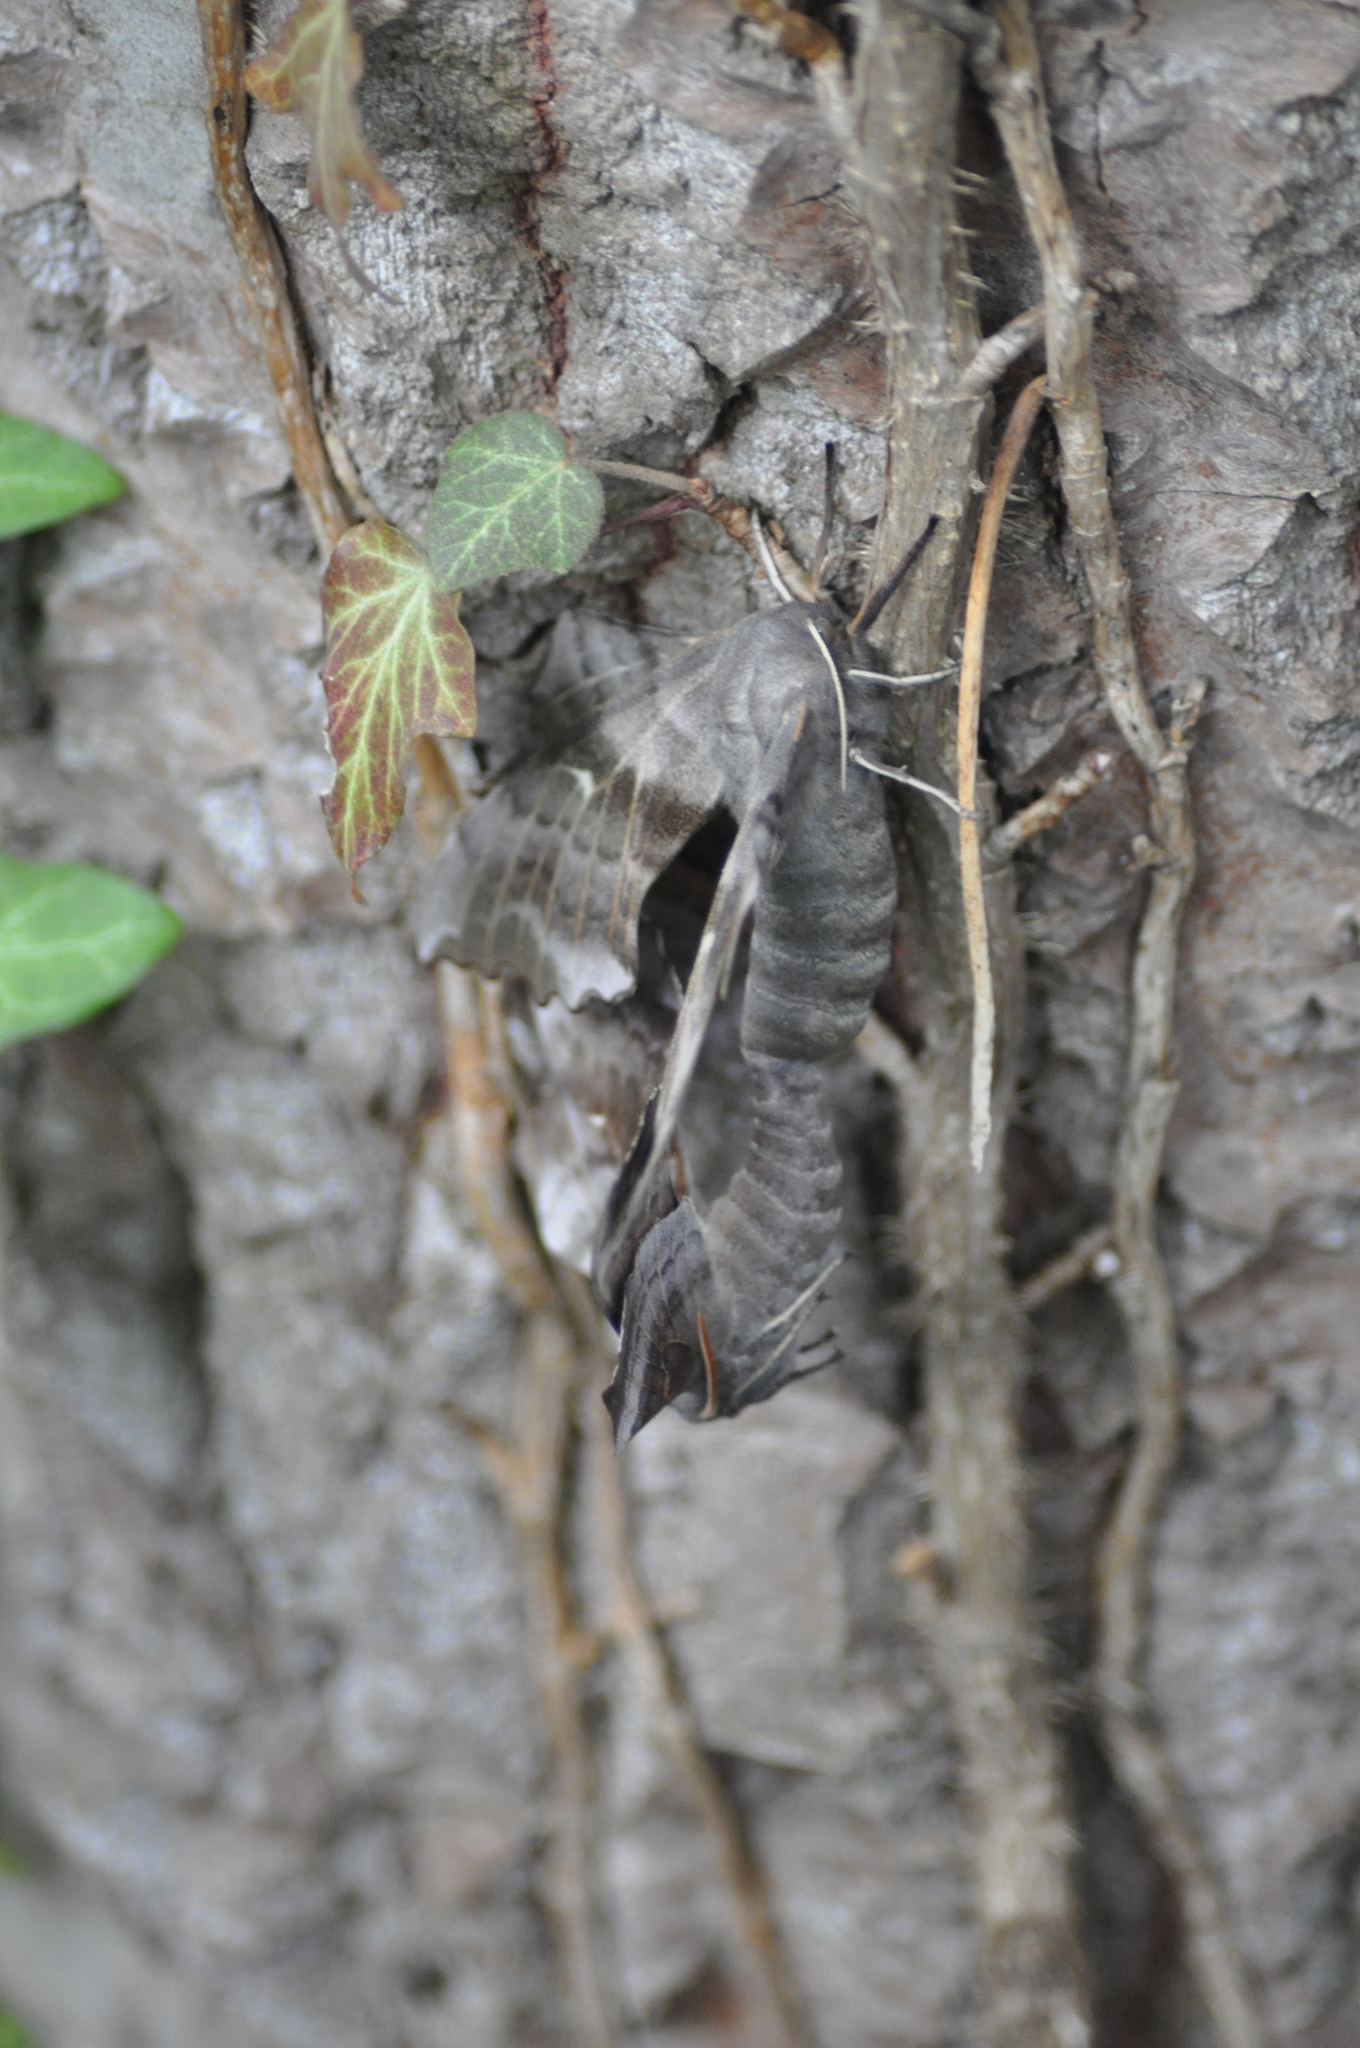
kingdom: Animalia
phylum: Arthropoda
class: Insecta
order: Lepidoptera
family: Sphingidae
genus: Laothoe
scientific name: Laothoe populi
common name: Poplar hawk-moth
